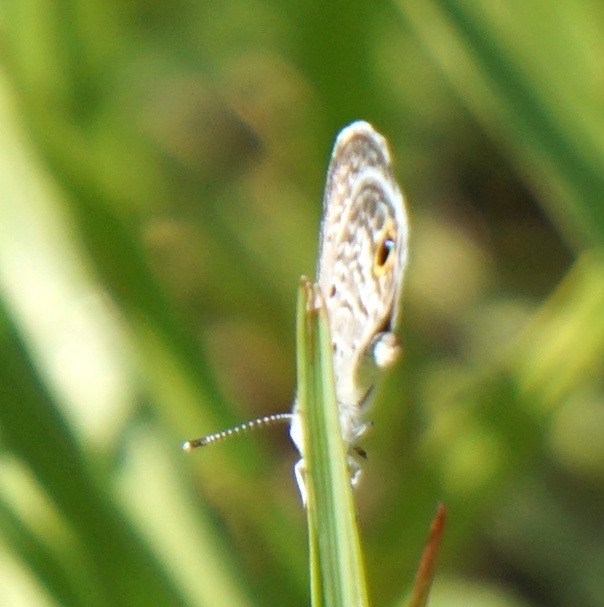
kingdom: Animalia
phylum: Arthropoda
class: Insecta
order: Lepidoptera
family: Lycaenidae
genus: Hemiargus
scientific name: Hemiargus ceraunus
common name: Ceraunus blue
